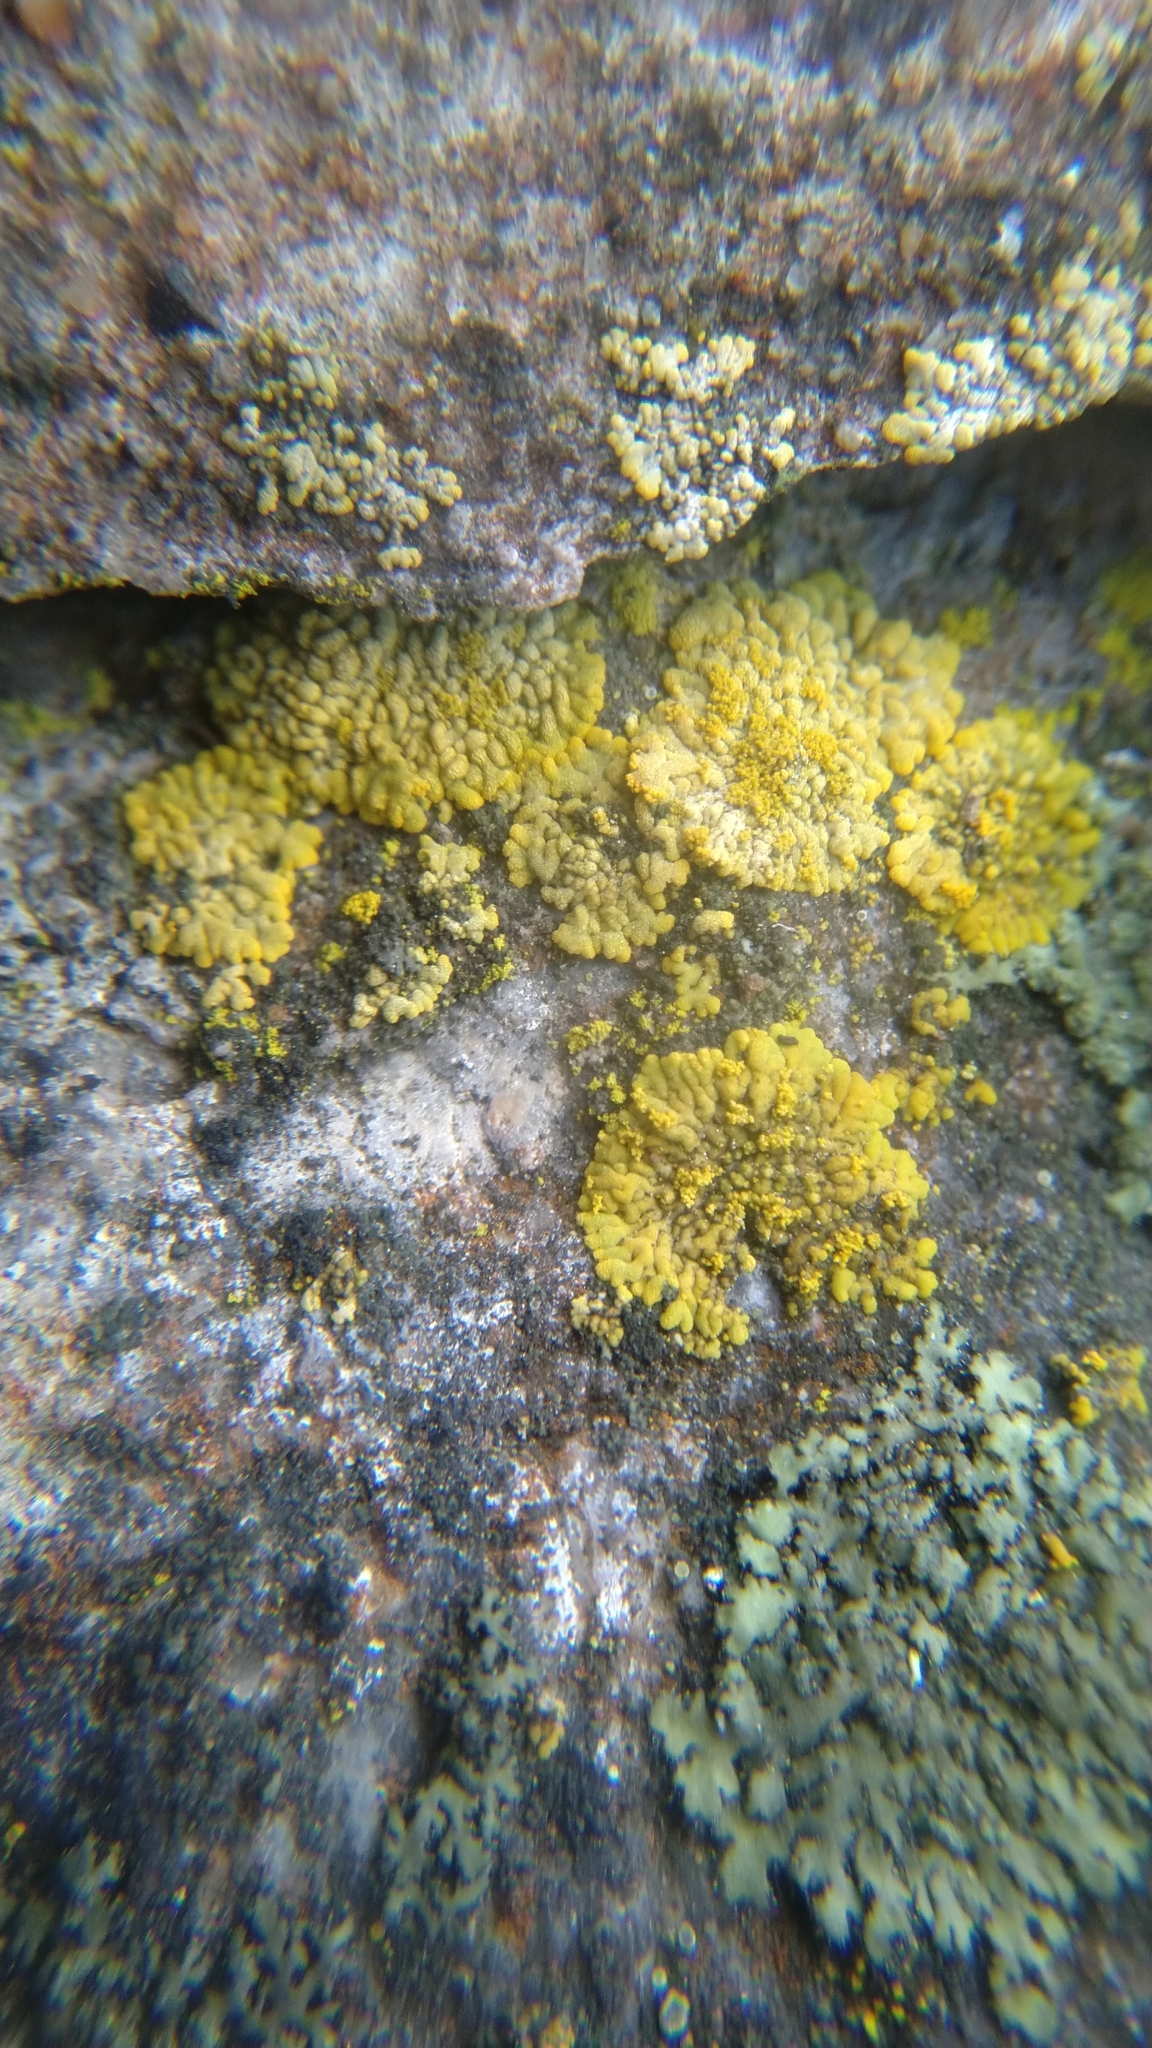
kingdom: Fungi
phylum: Ascomycota
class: Lecanoromycetes
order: Teloschistales
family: Teloschistaceae
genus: Calogaya
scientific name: Calogaya decipiens
